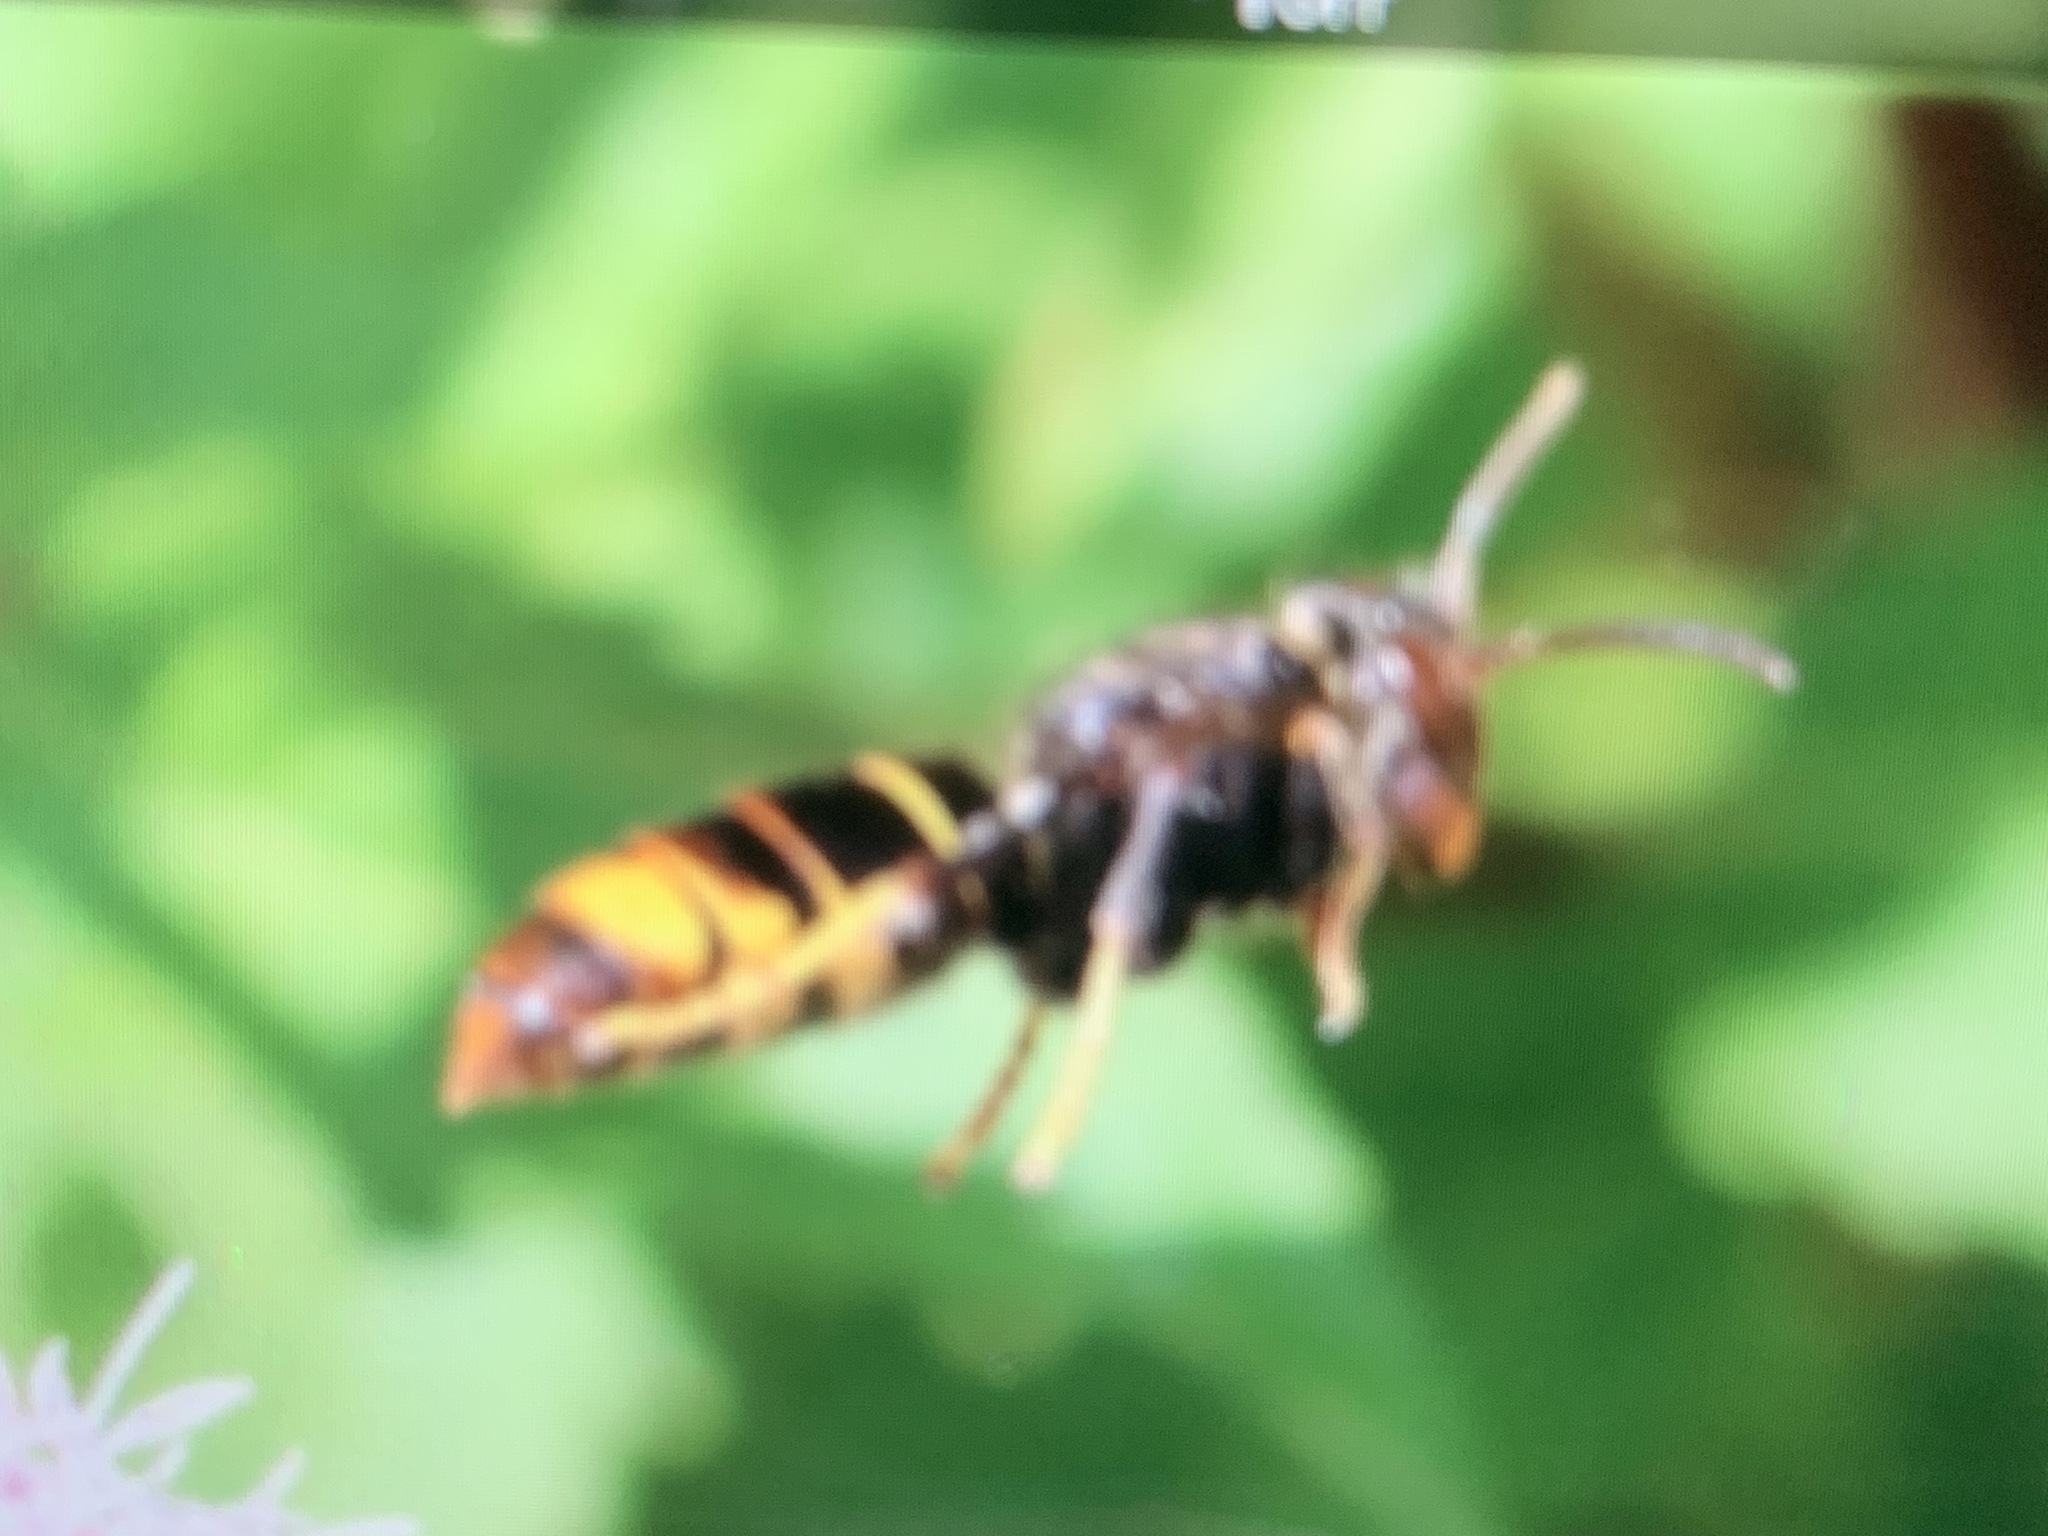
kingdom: Animalia
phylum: Arthropoda
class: Insecta
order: Hymenoptera
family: Vespidae
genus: Vespa
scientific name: Vespa velutina
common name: Asian hornet
